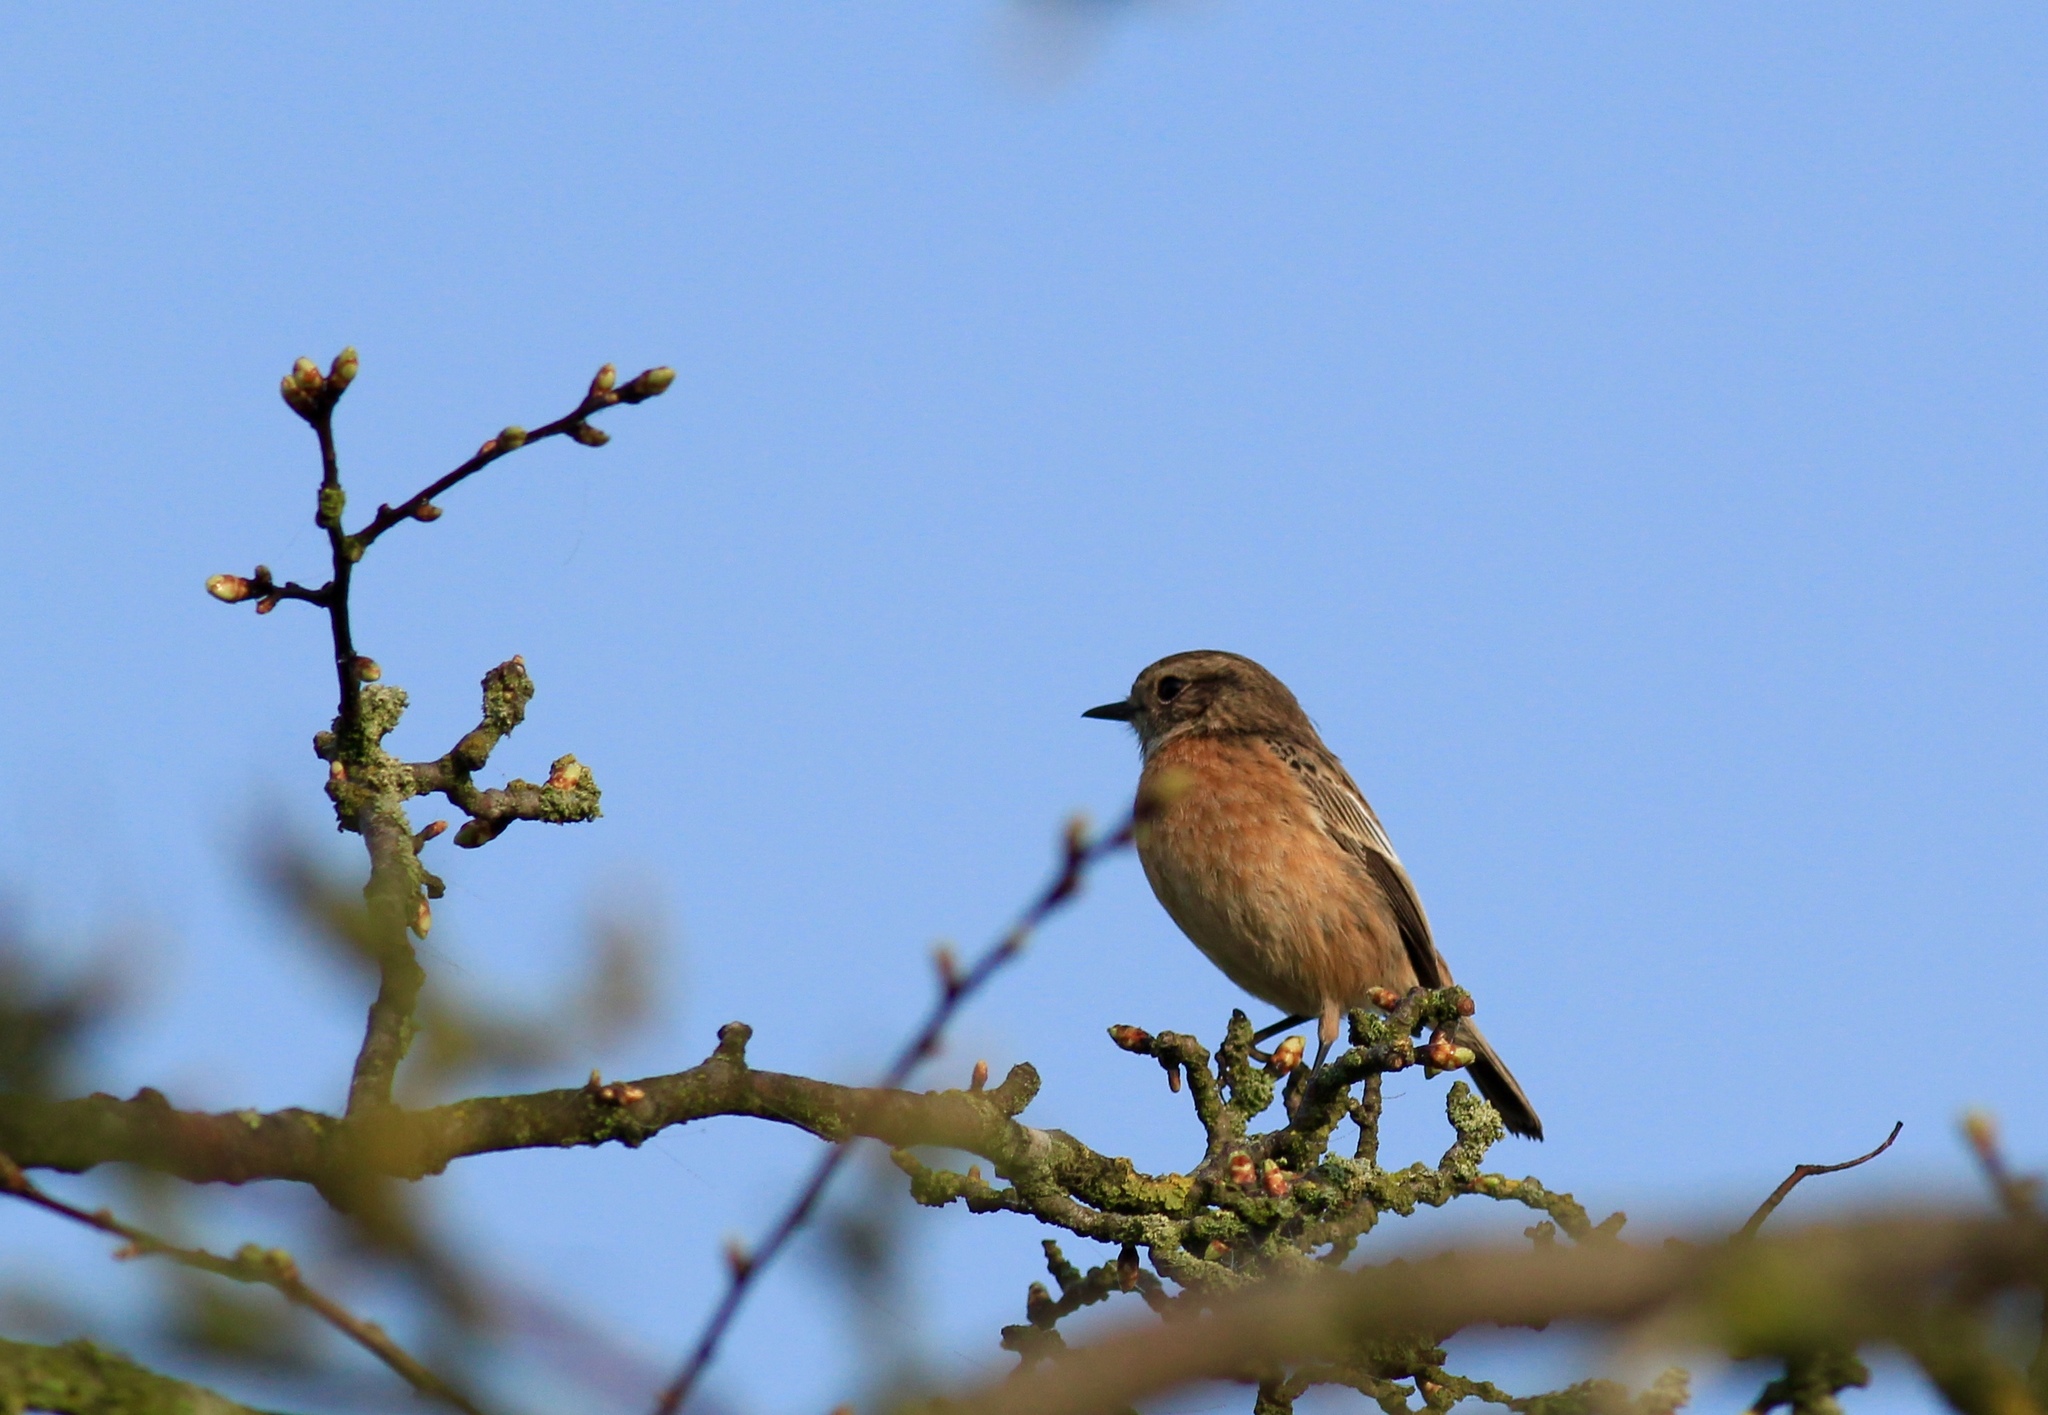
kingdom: Animalia
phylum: Chordata
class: Aves
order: Passeriformes
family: Muscicapidae
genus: Saxicola
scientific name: Saxicola rubicola
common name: European stonechat
